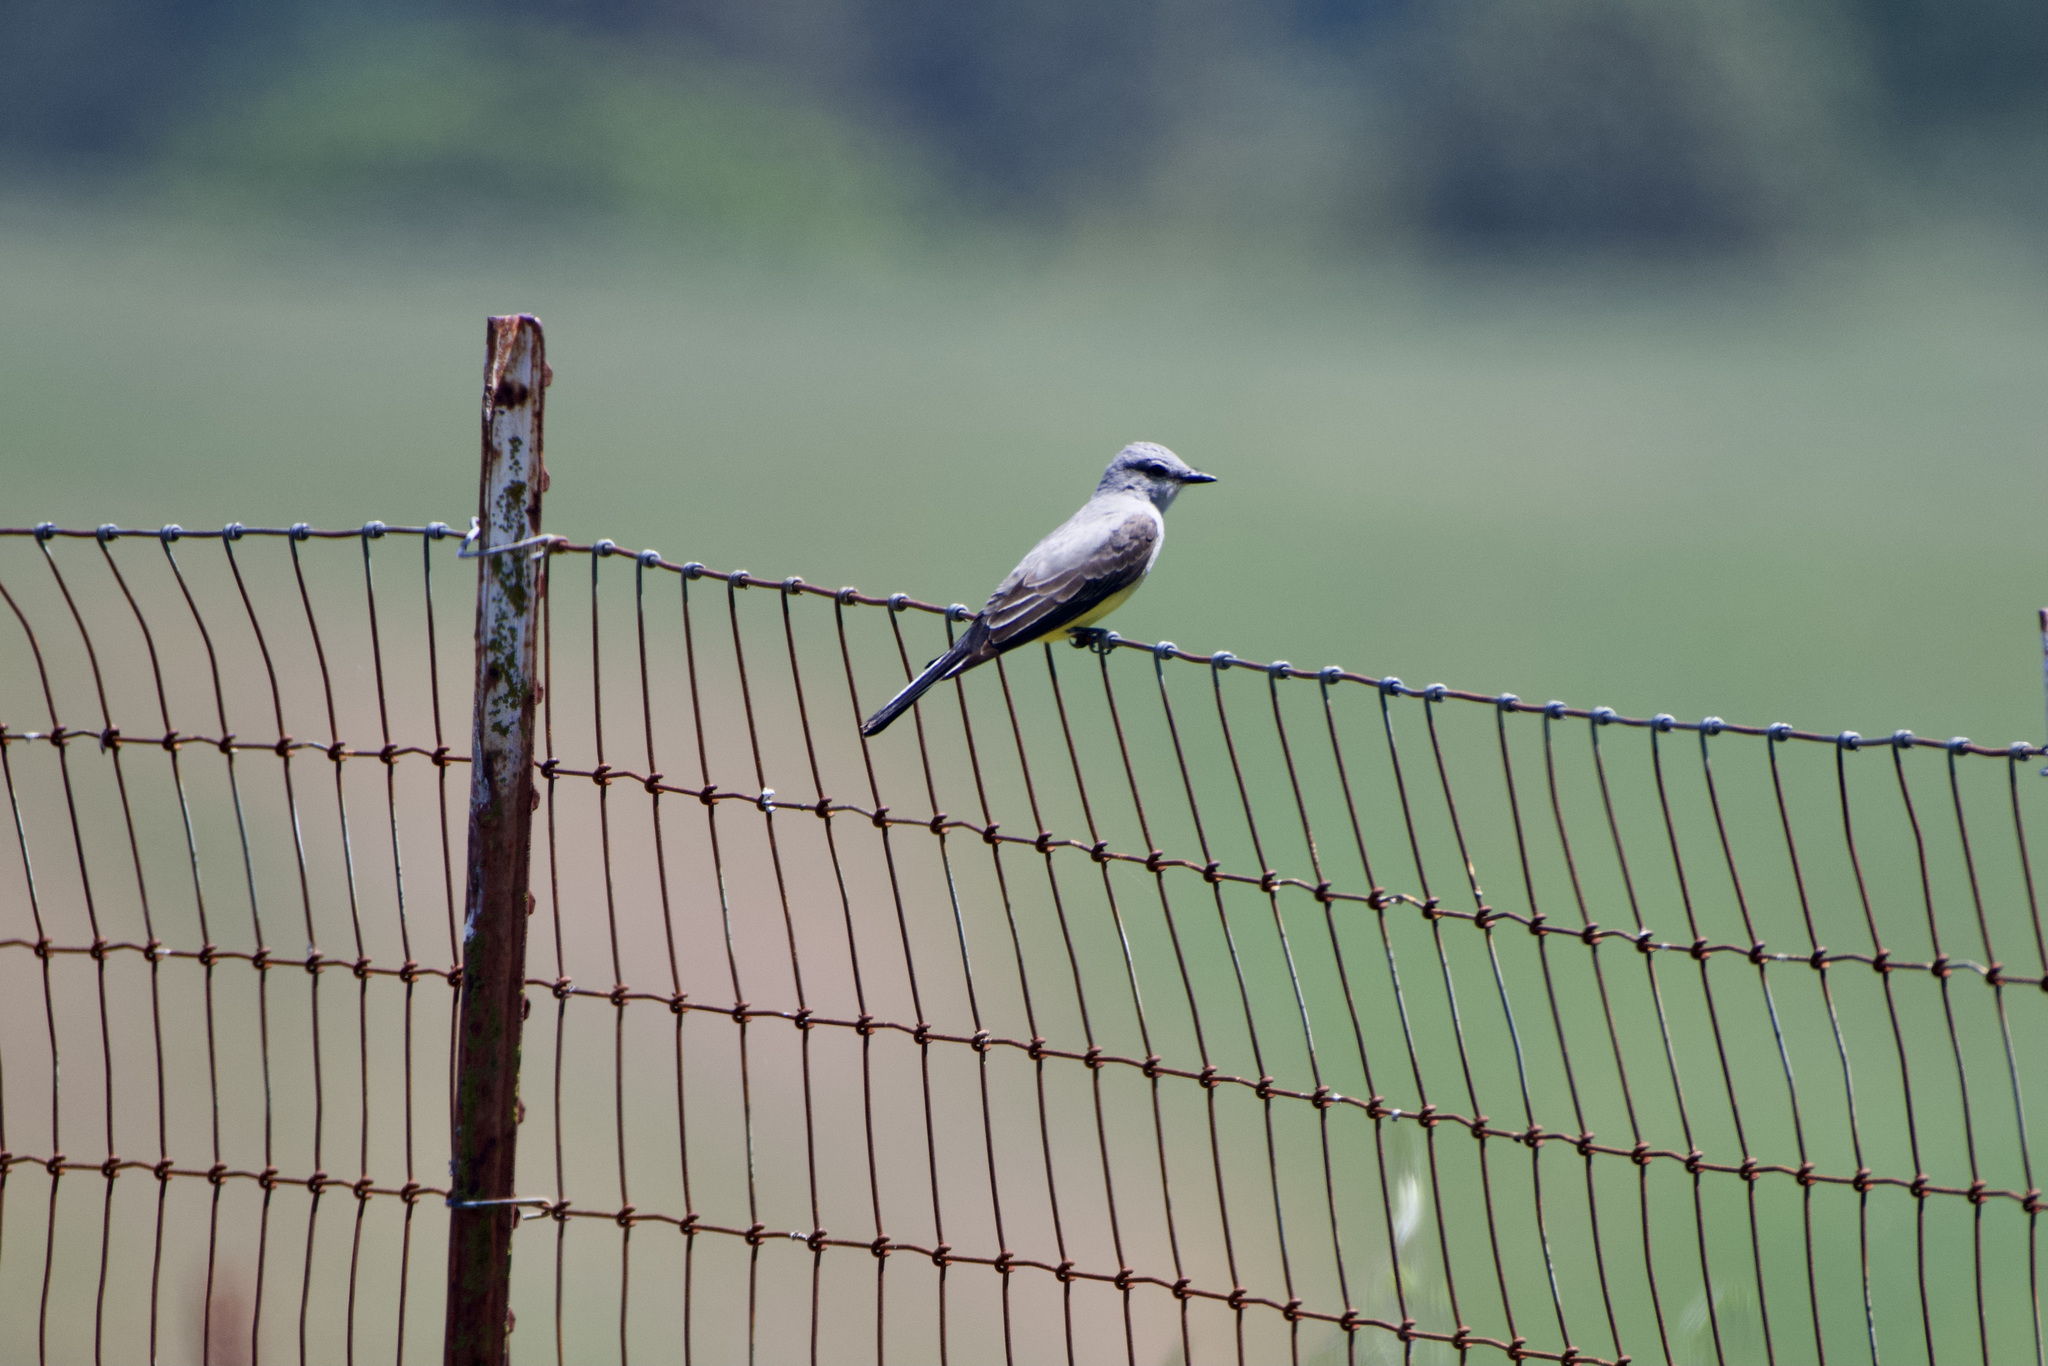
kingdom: Animalia
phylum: Chordata
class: Aves
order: Passeriformes
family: Tyrannidae
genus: Tyrannus
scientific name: Tyrannus verticalis
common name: Western kingbird
